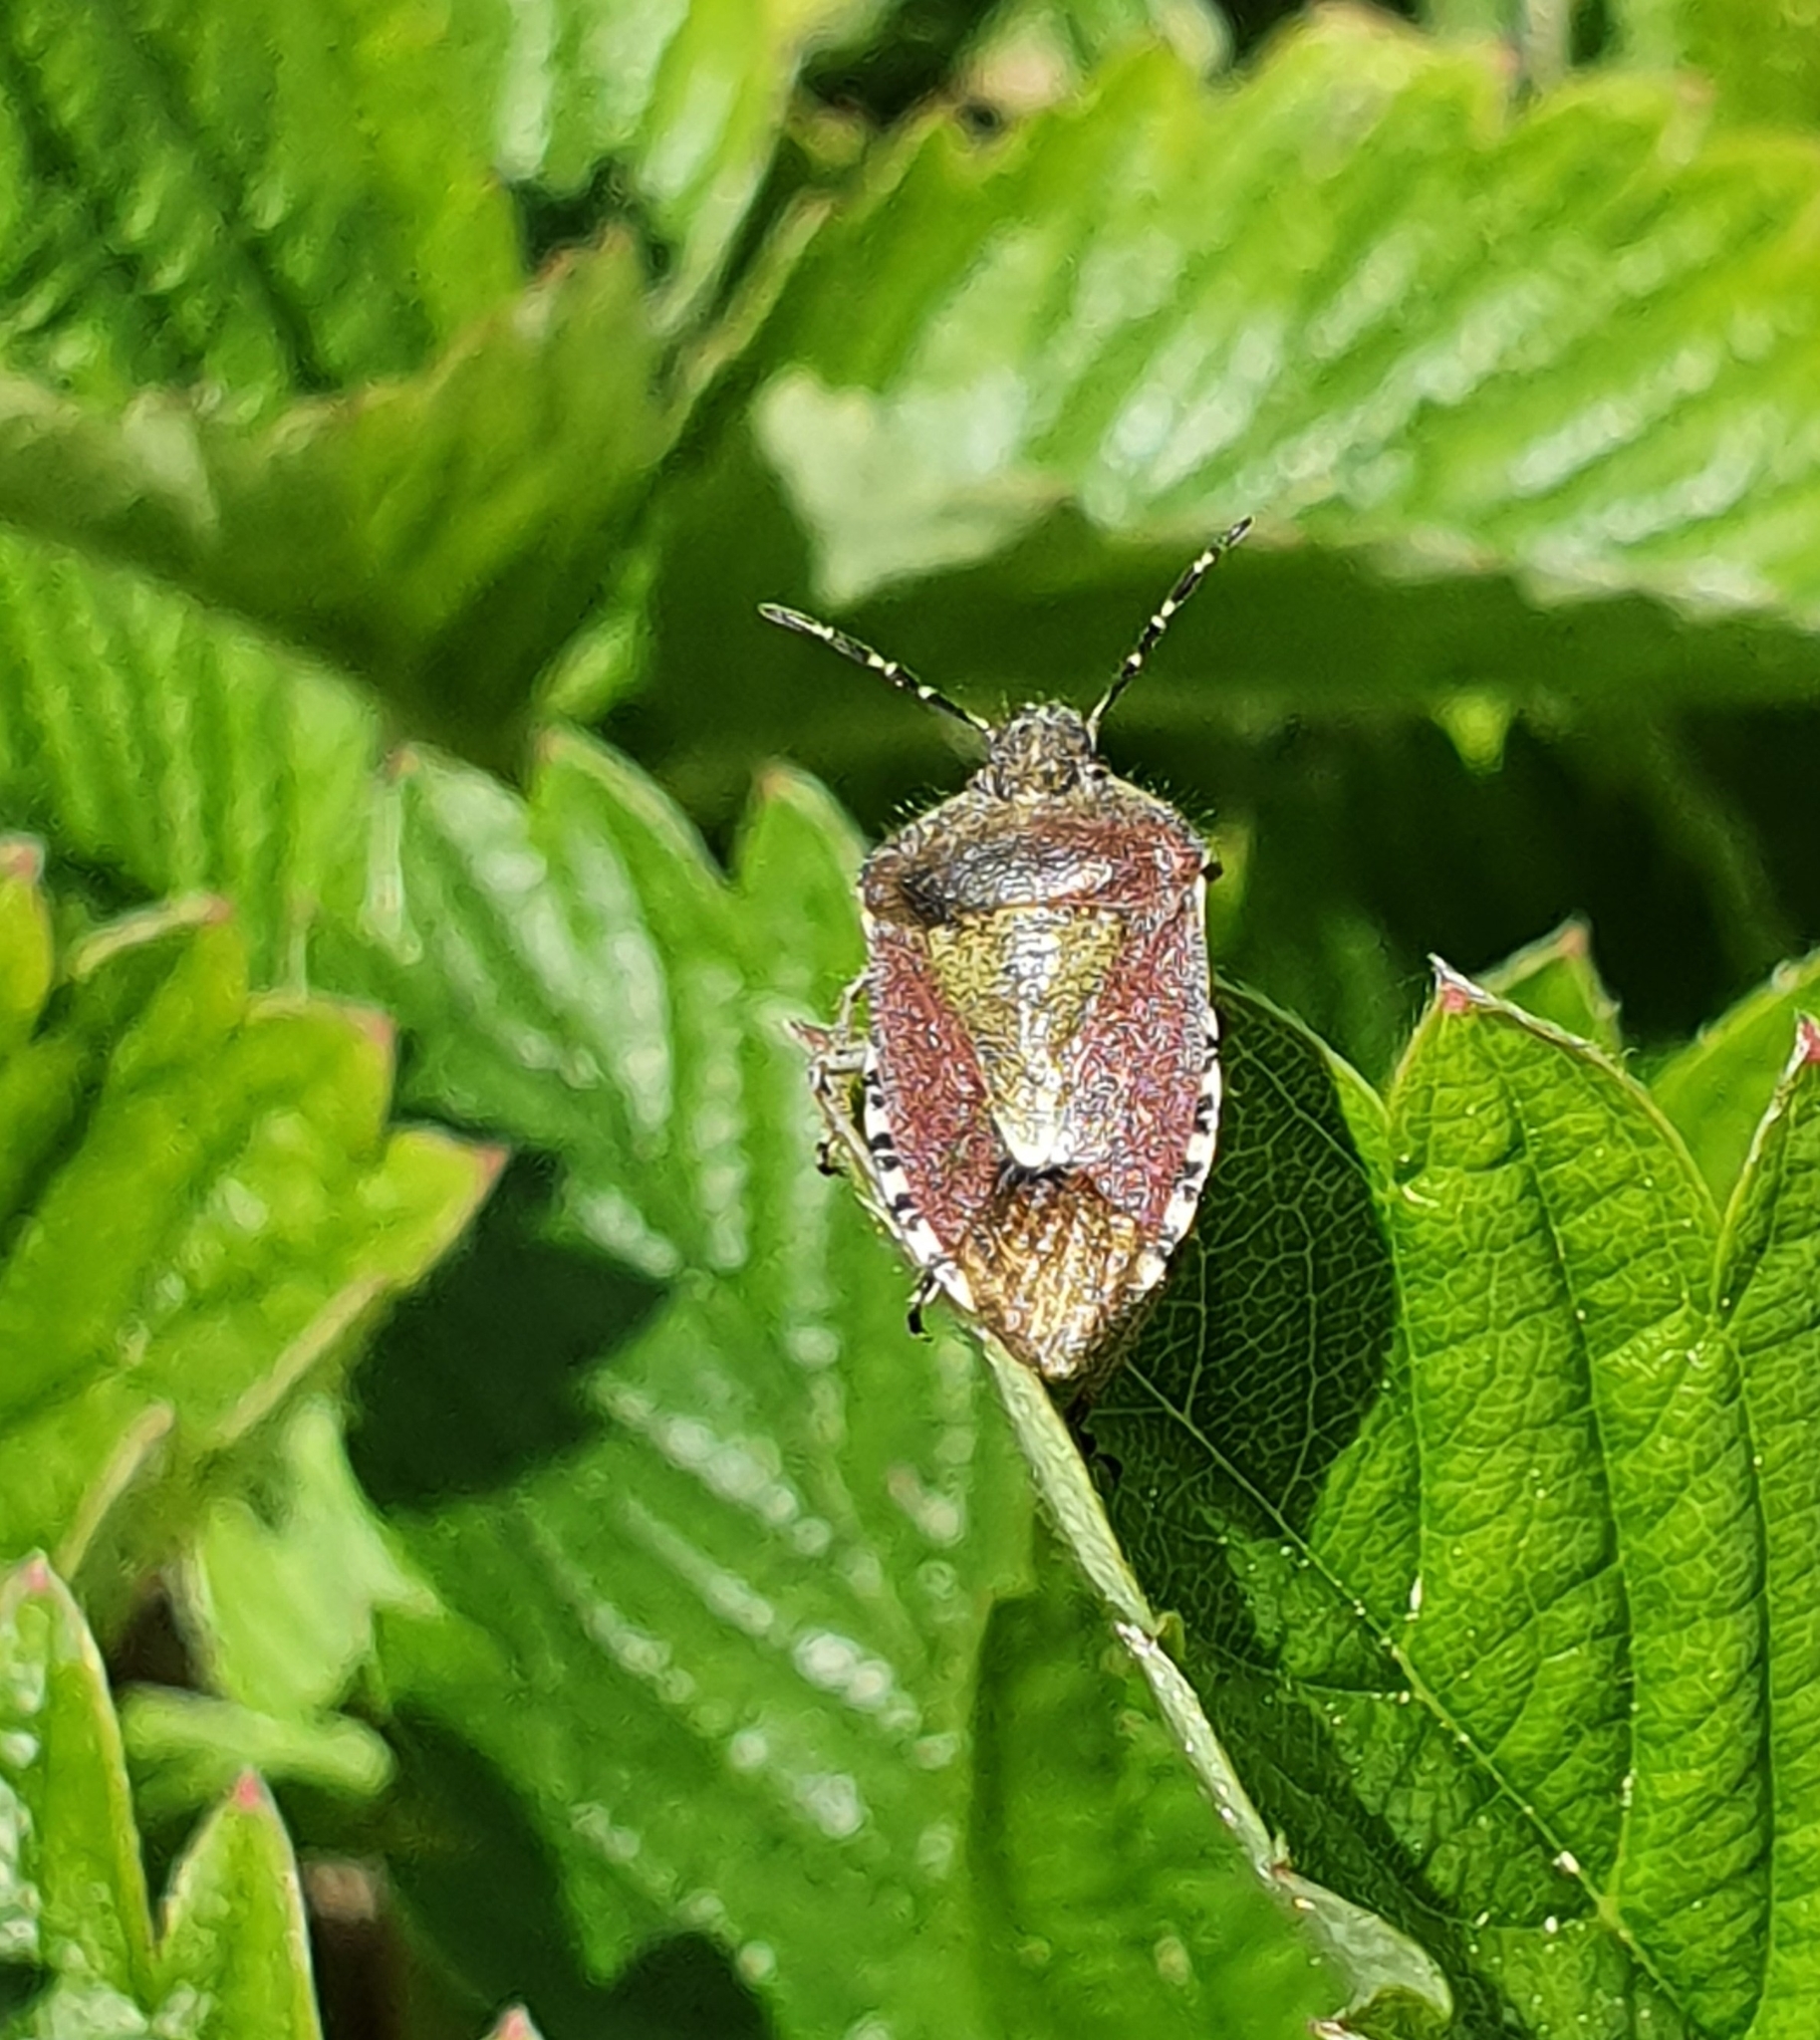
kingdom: Animalia
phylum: Arthropoda
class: Insecta
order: Hemiptera
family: Pentatomidae
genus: Dolycoris
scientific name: Dolycoris baccarum
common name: Sloe bug
